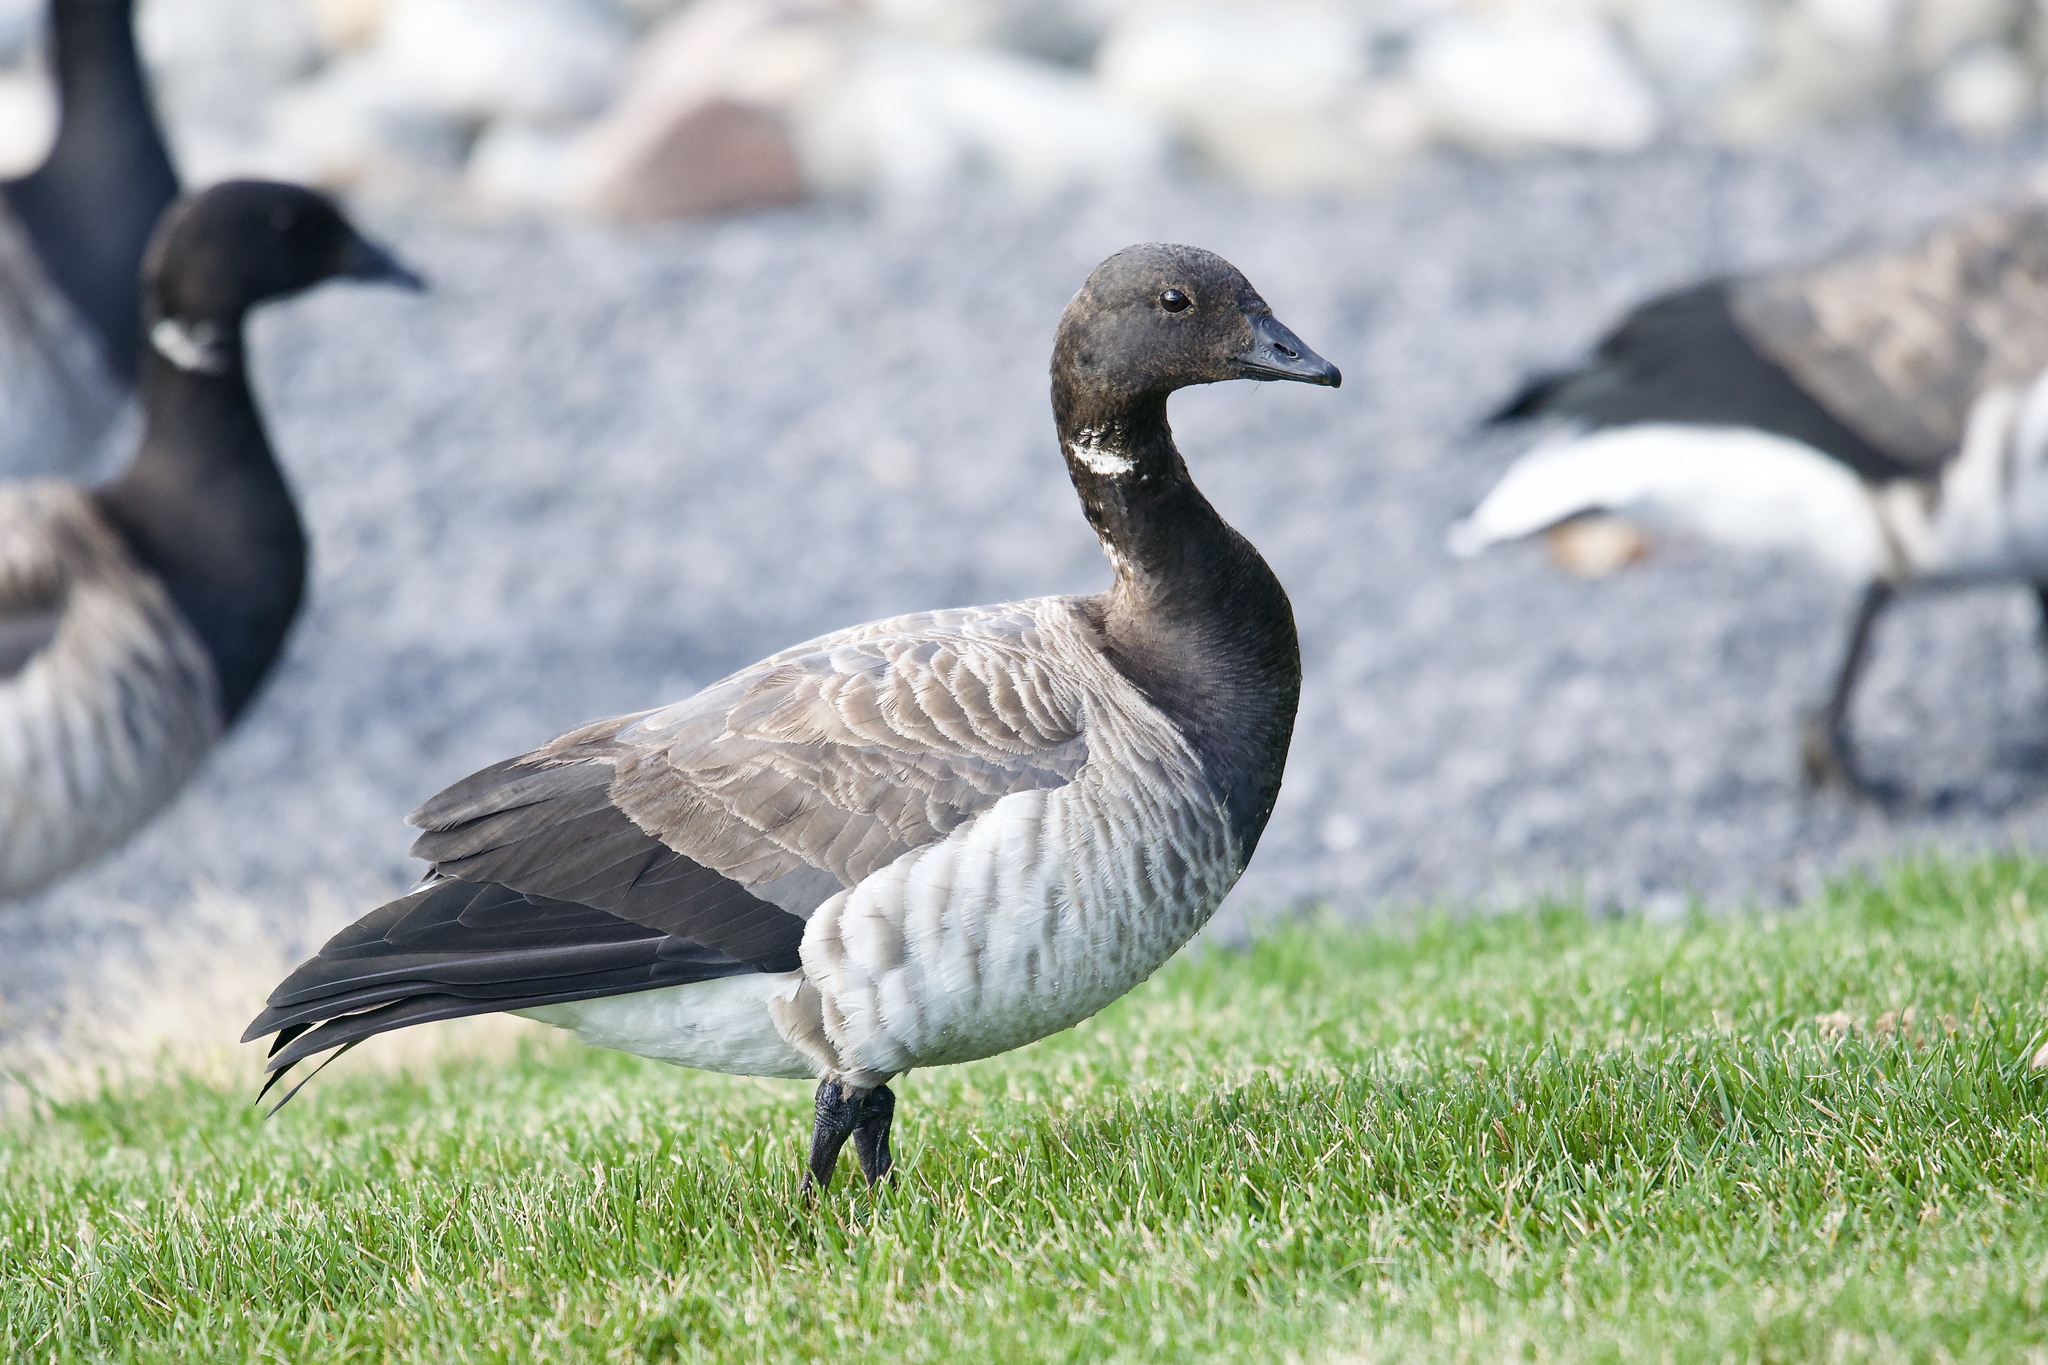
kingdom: Animalia
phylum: Chordata
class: Aves
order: Anseriformes
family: Anatidae
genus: Branta
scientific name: Branta bernicla
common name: Brant goose
